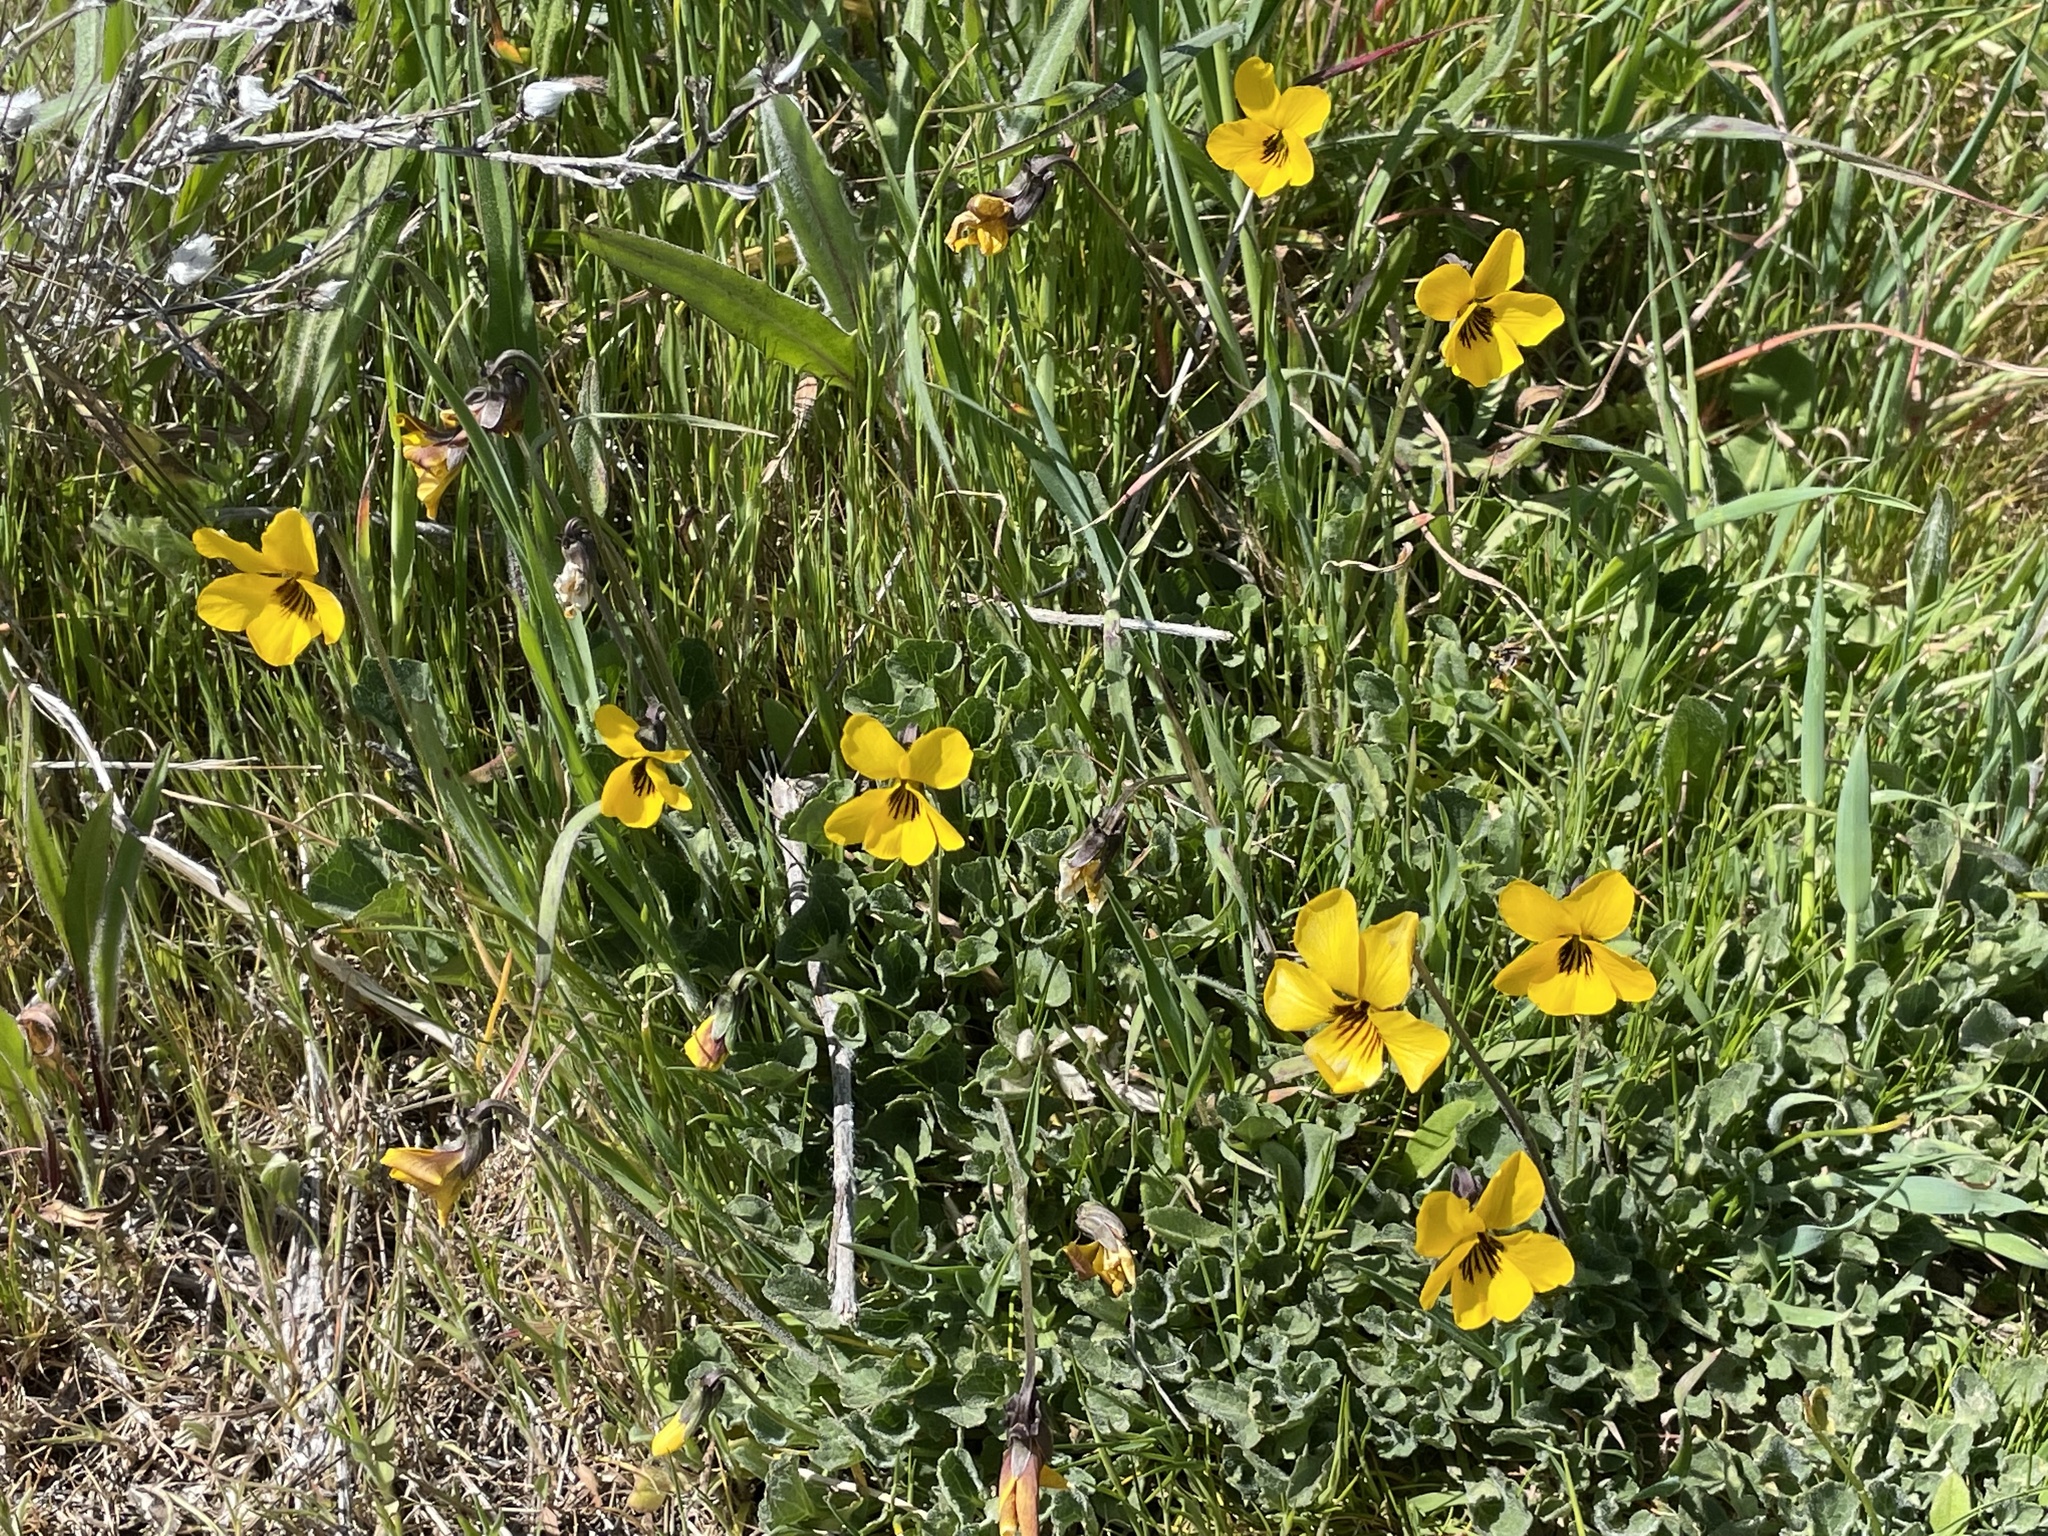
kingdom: Plantae
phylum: Tracheophyta
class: Magnoliopsida
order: Malpighiales
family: Violaceae
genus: Viola
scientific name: Viola pedunculata
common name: California golden violet
